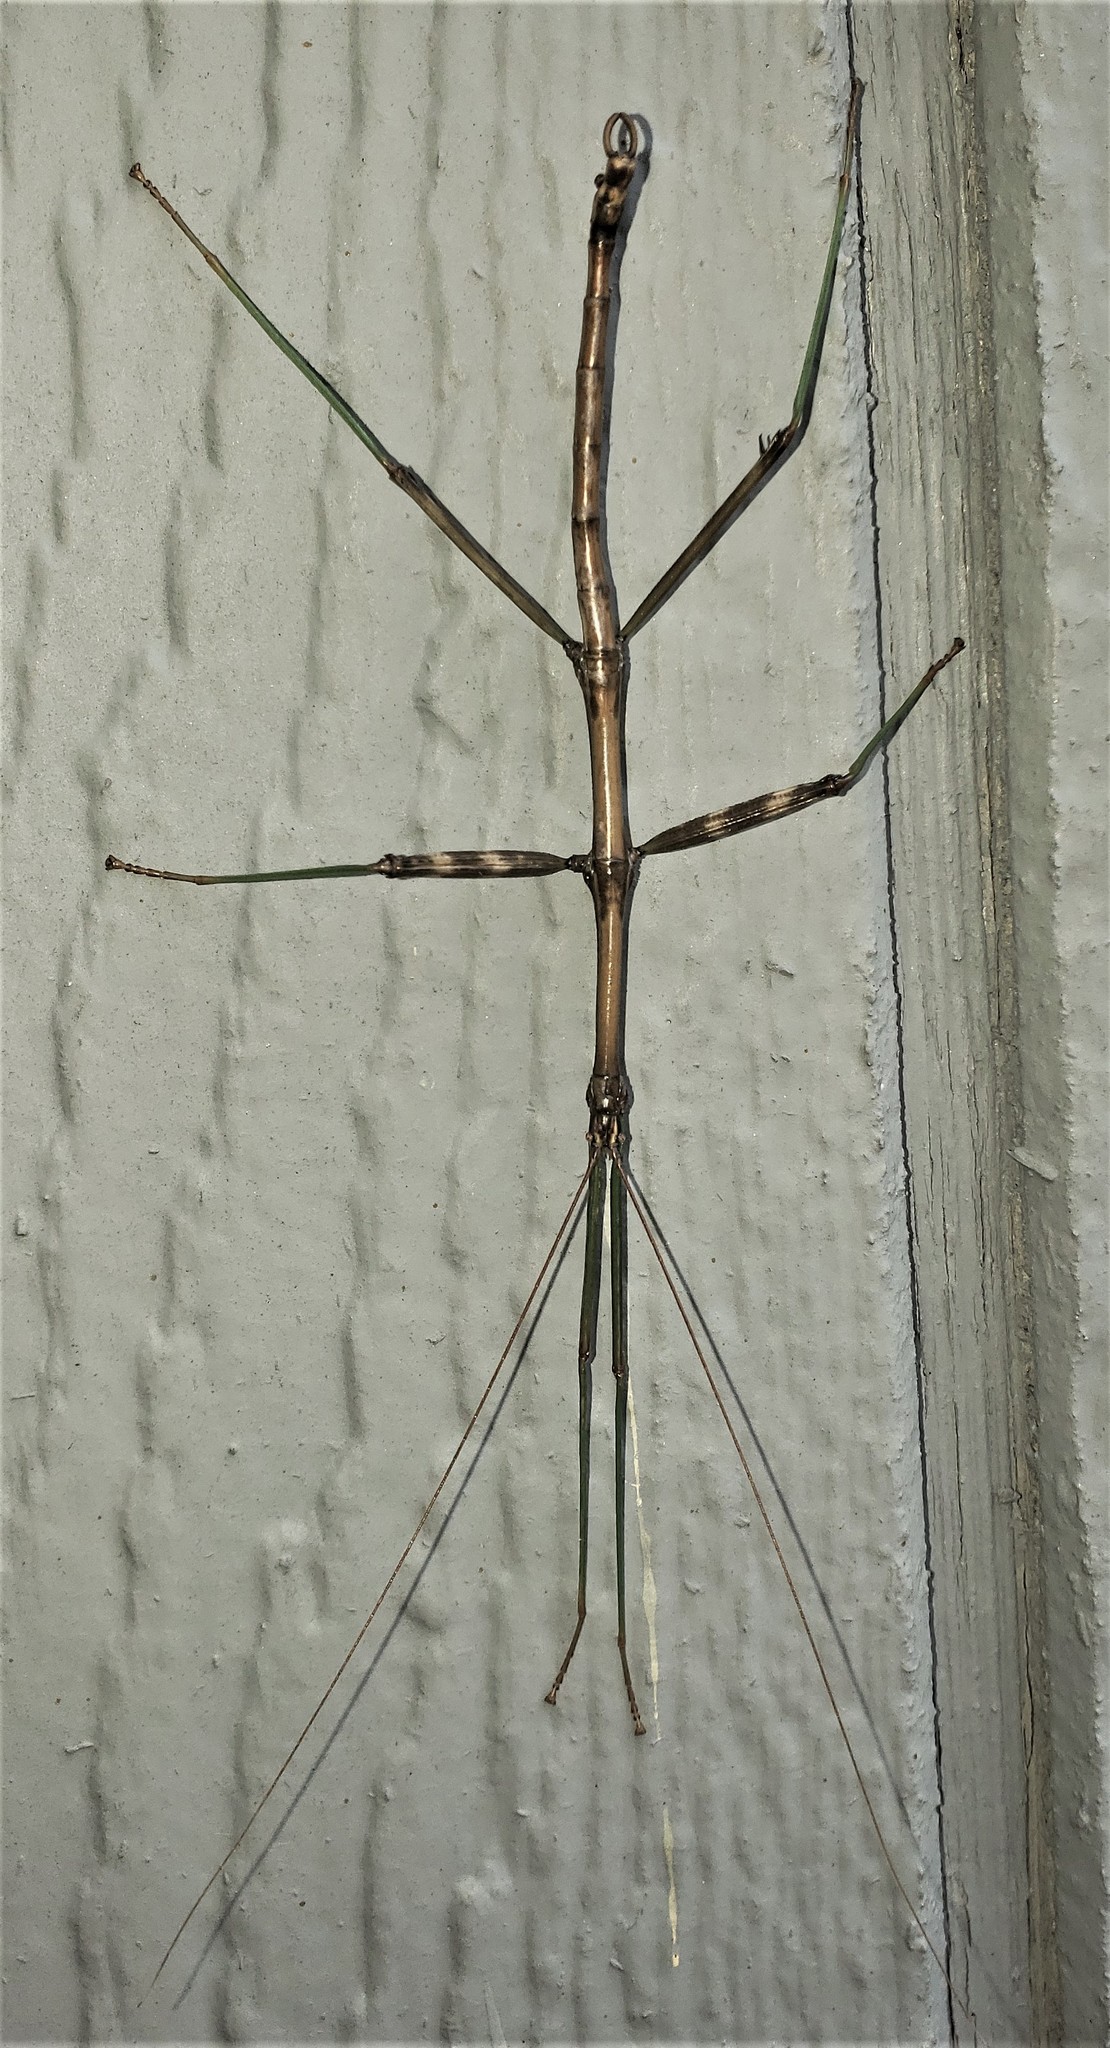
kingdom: Animalia
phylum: Arthropoda
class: Insecta
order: Phasmida
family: Diapheromeridae
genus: Diapheromera
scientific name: Diapheromera femorata
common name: Common american walkingstick
